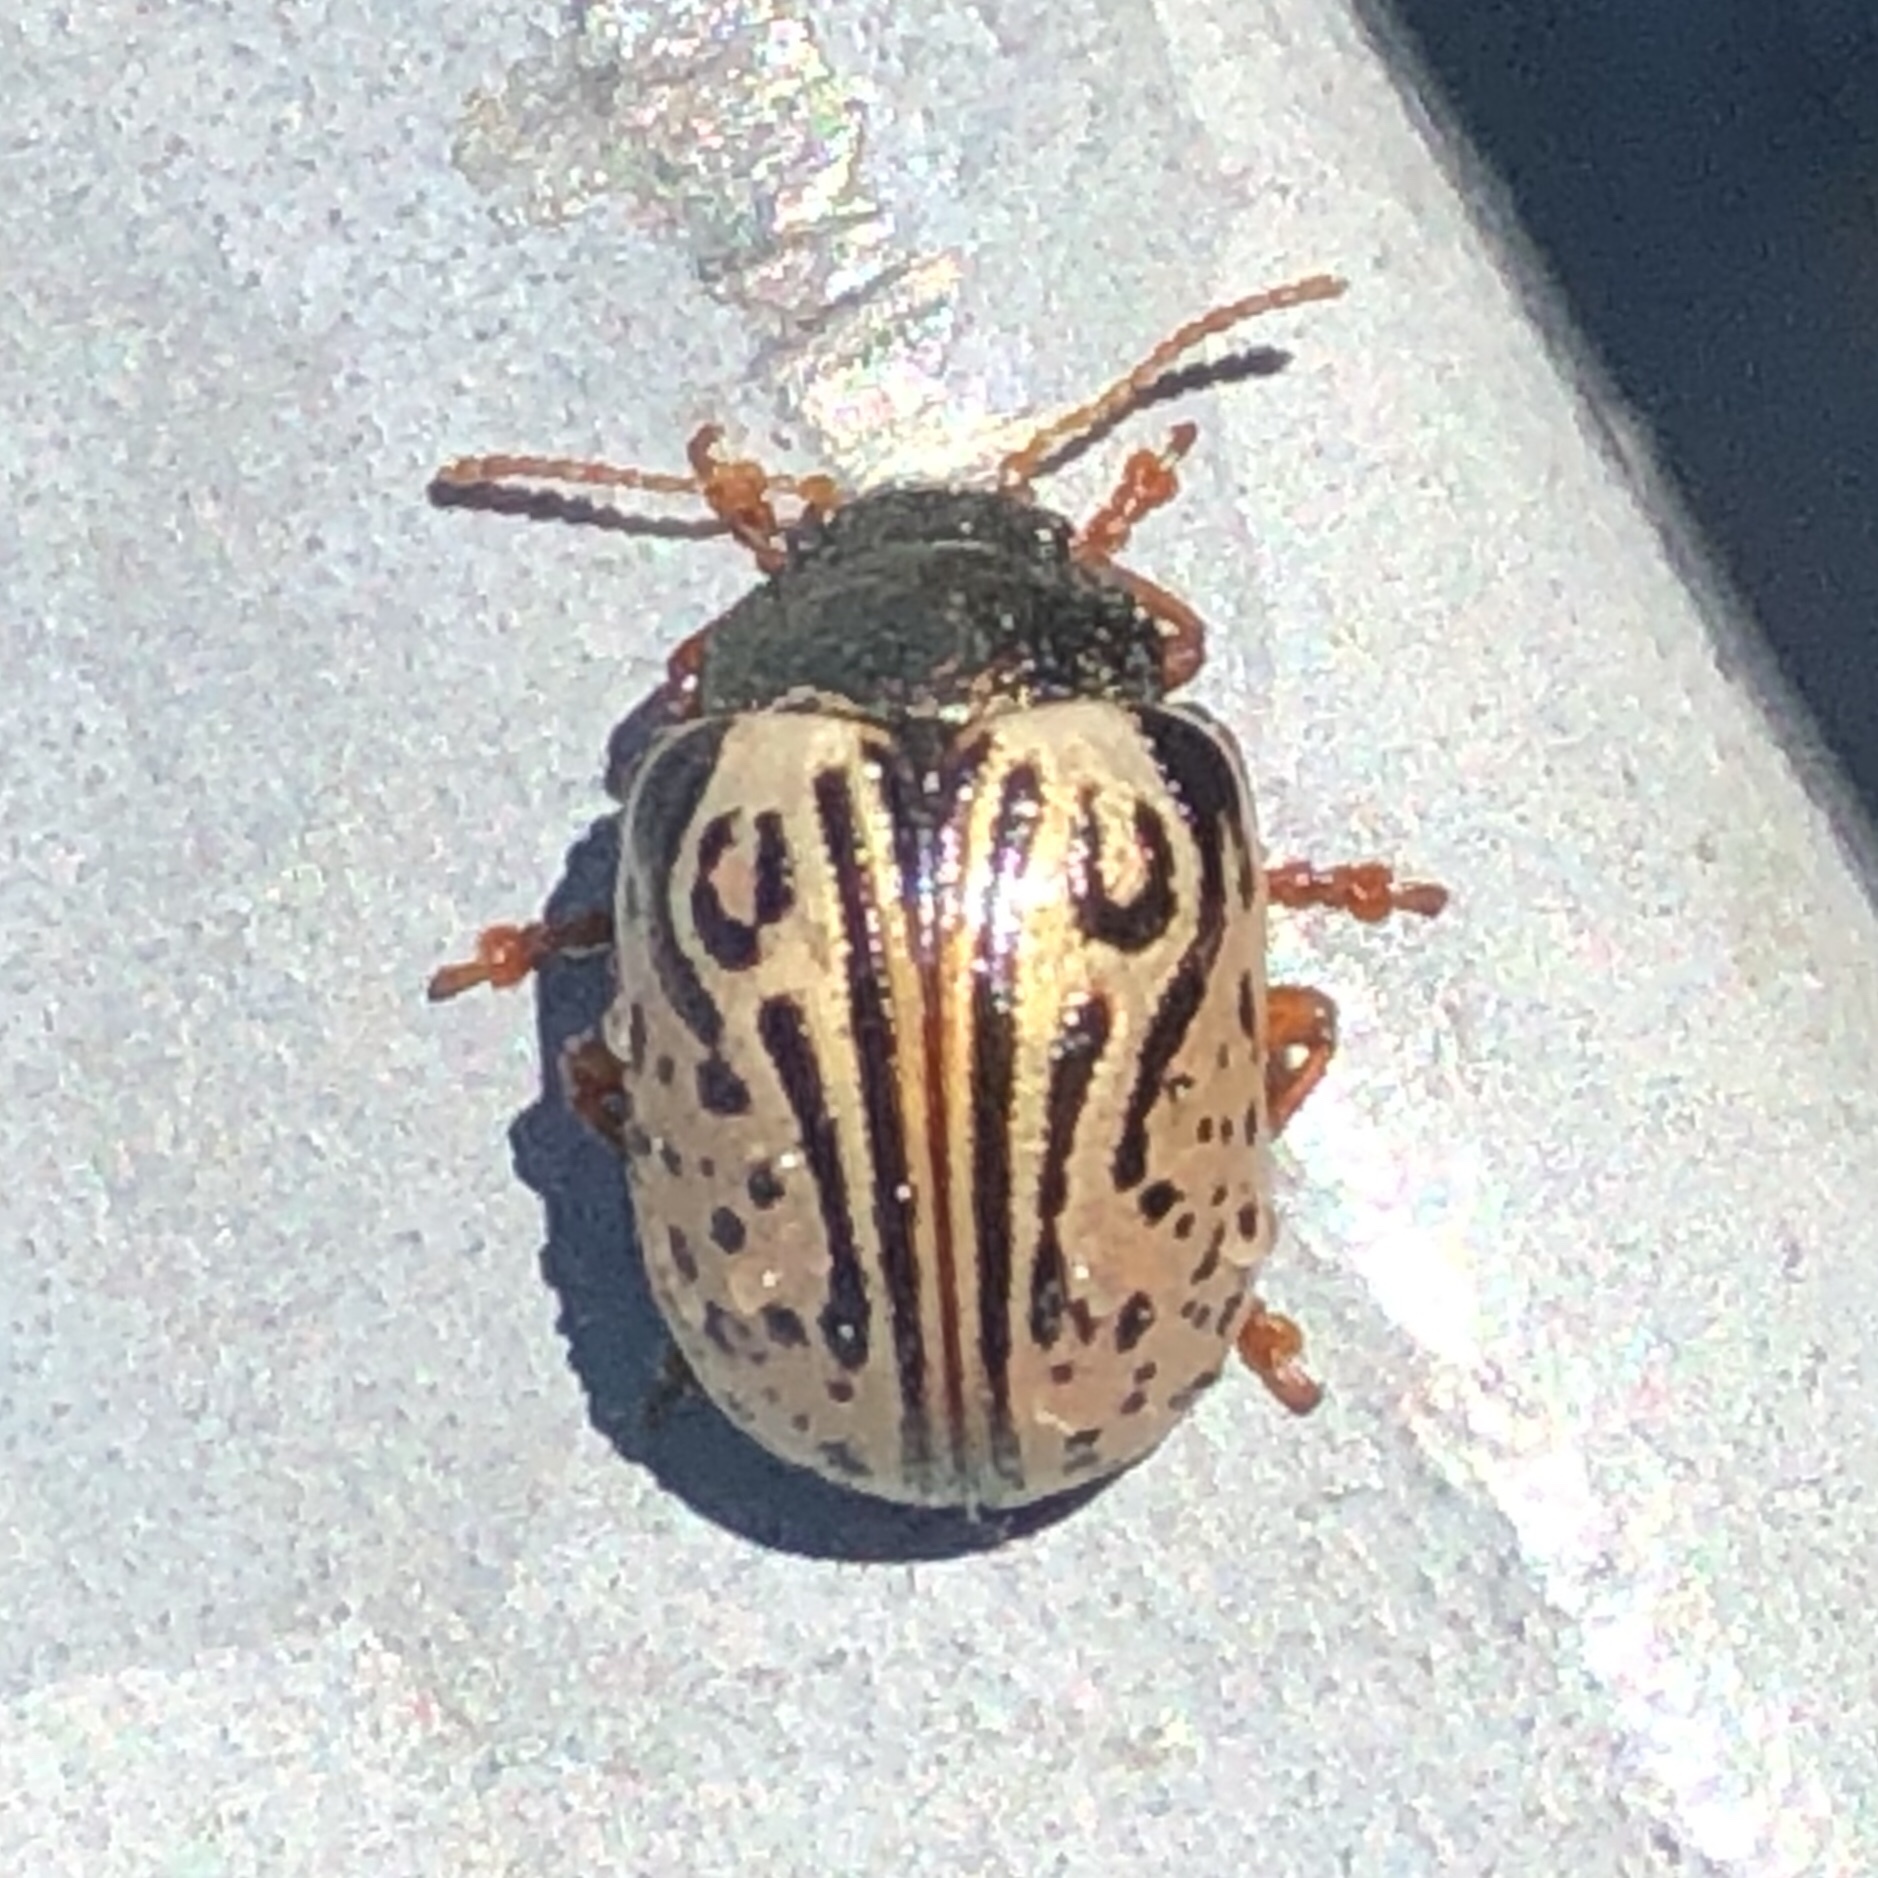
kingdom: Animalia
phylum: Arthropoda
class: Insecta
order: Coleoptera
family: Chrysomelidae
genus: Calligrapha
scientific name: Calligrapha philadelphica
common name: Dogwood leaf beetle
